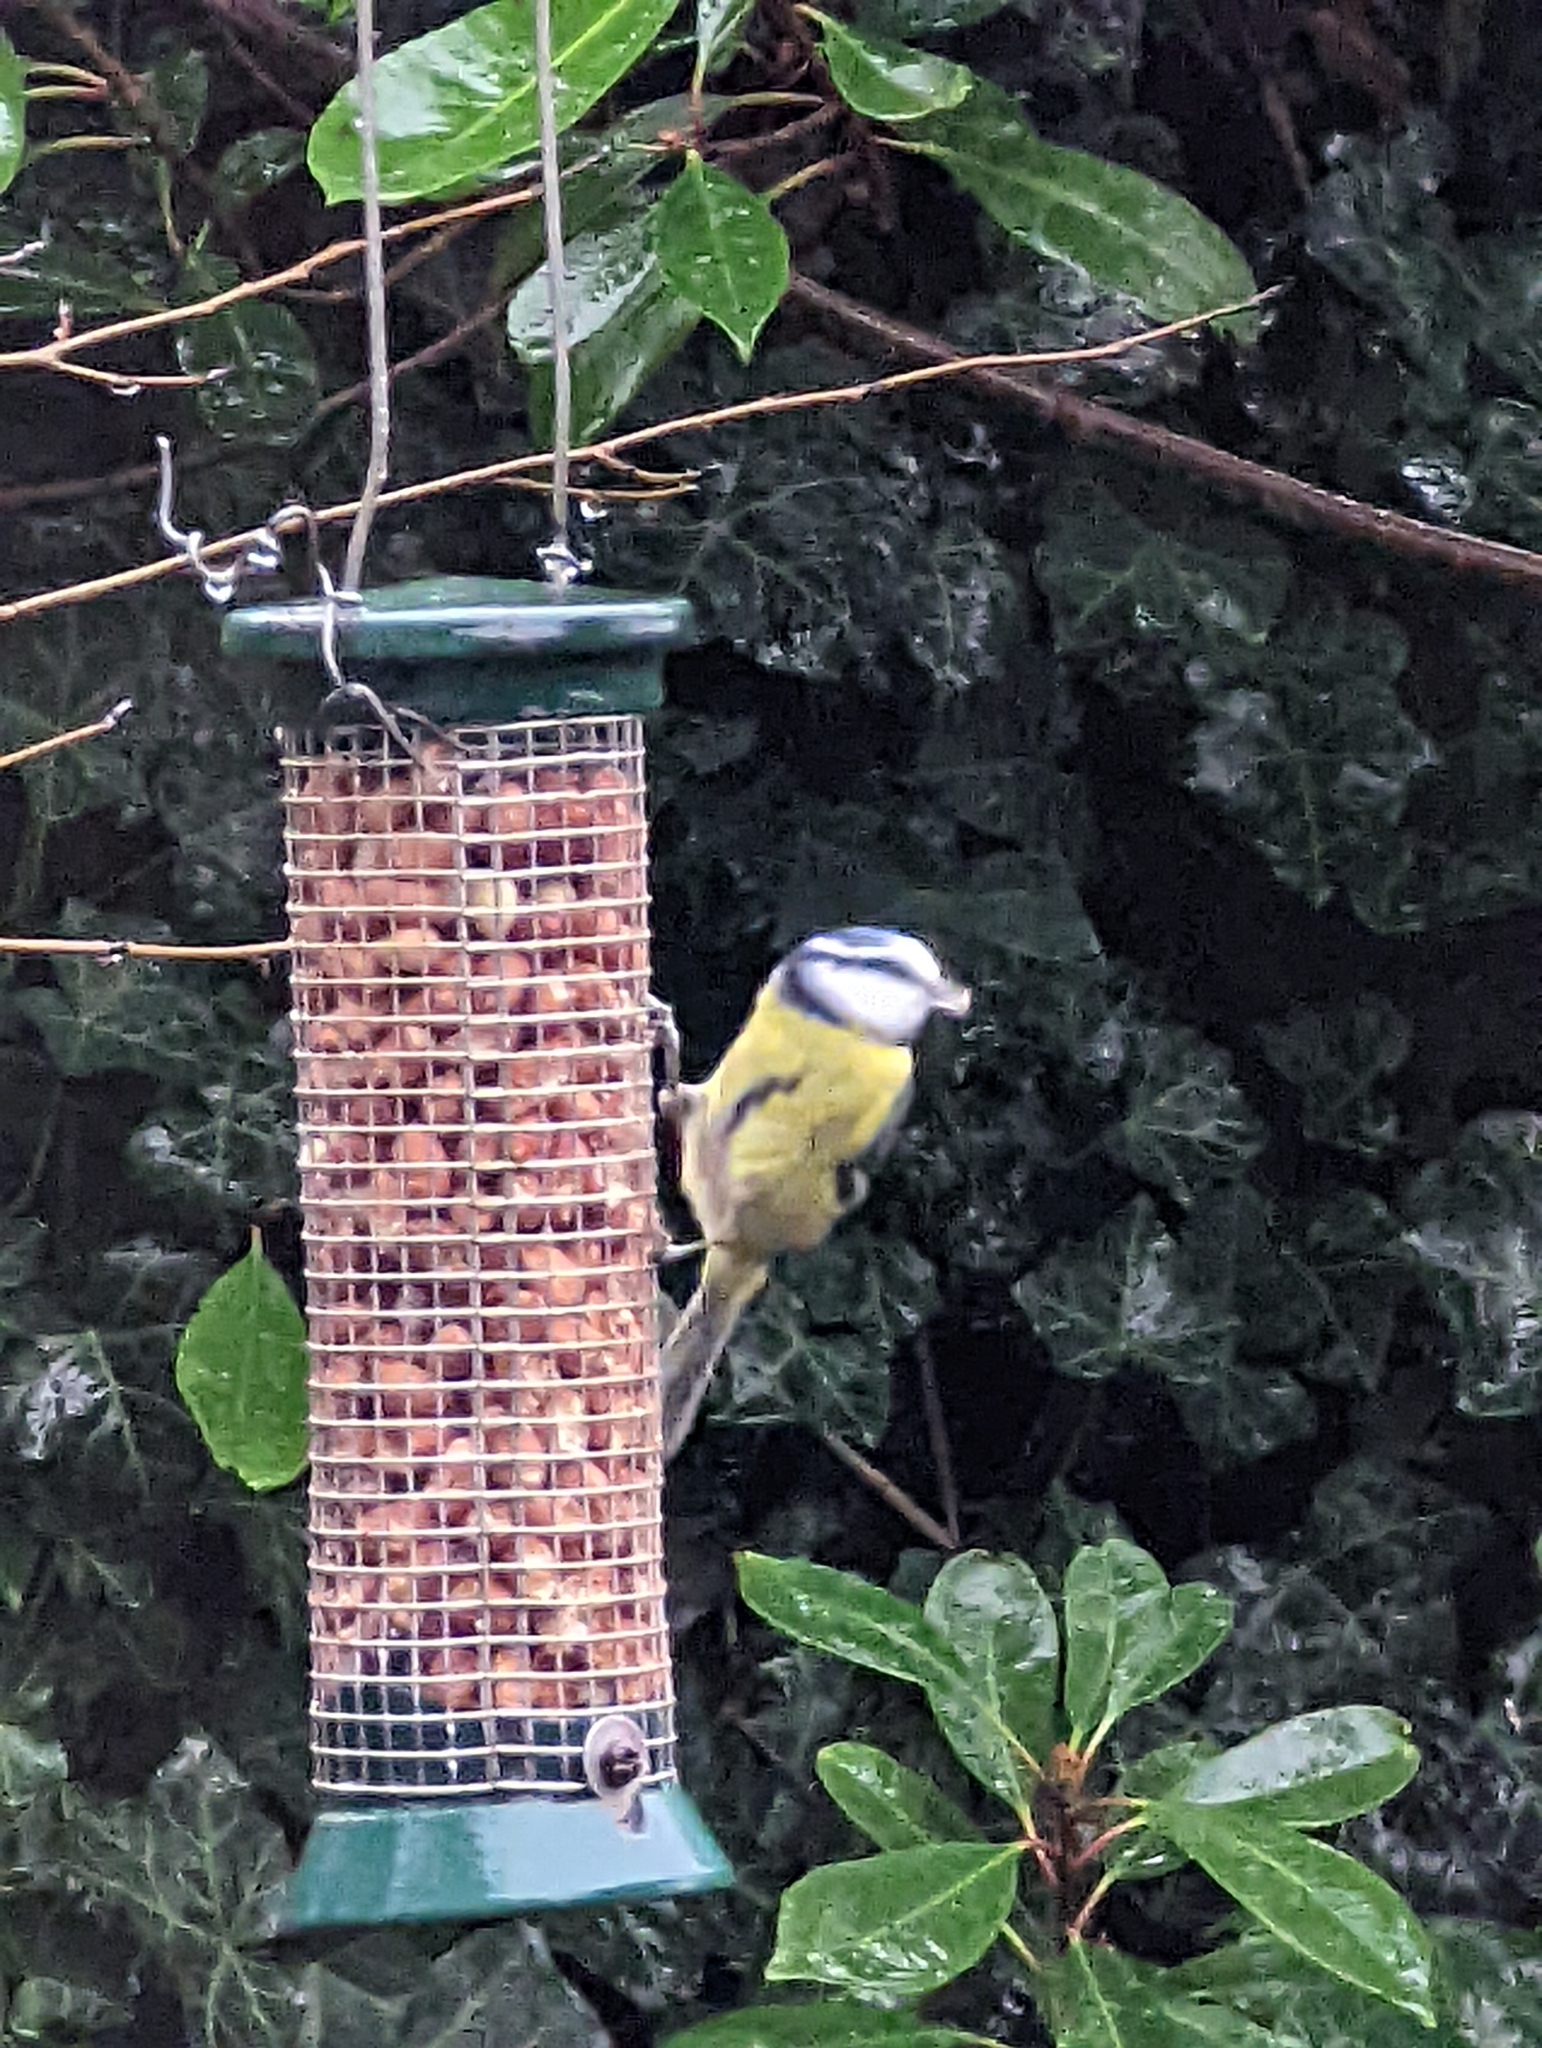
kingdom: Animalia
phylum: Chordata
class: Aves
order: Passeriformes
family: Paridae
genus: Cyanistes
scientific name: Cyanistes caeruleus
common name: Eurasian blue tit
